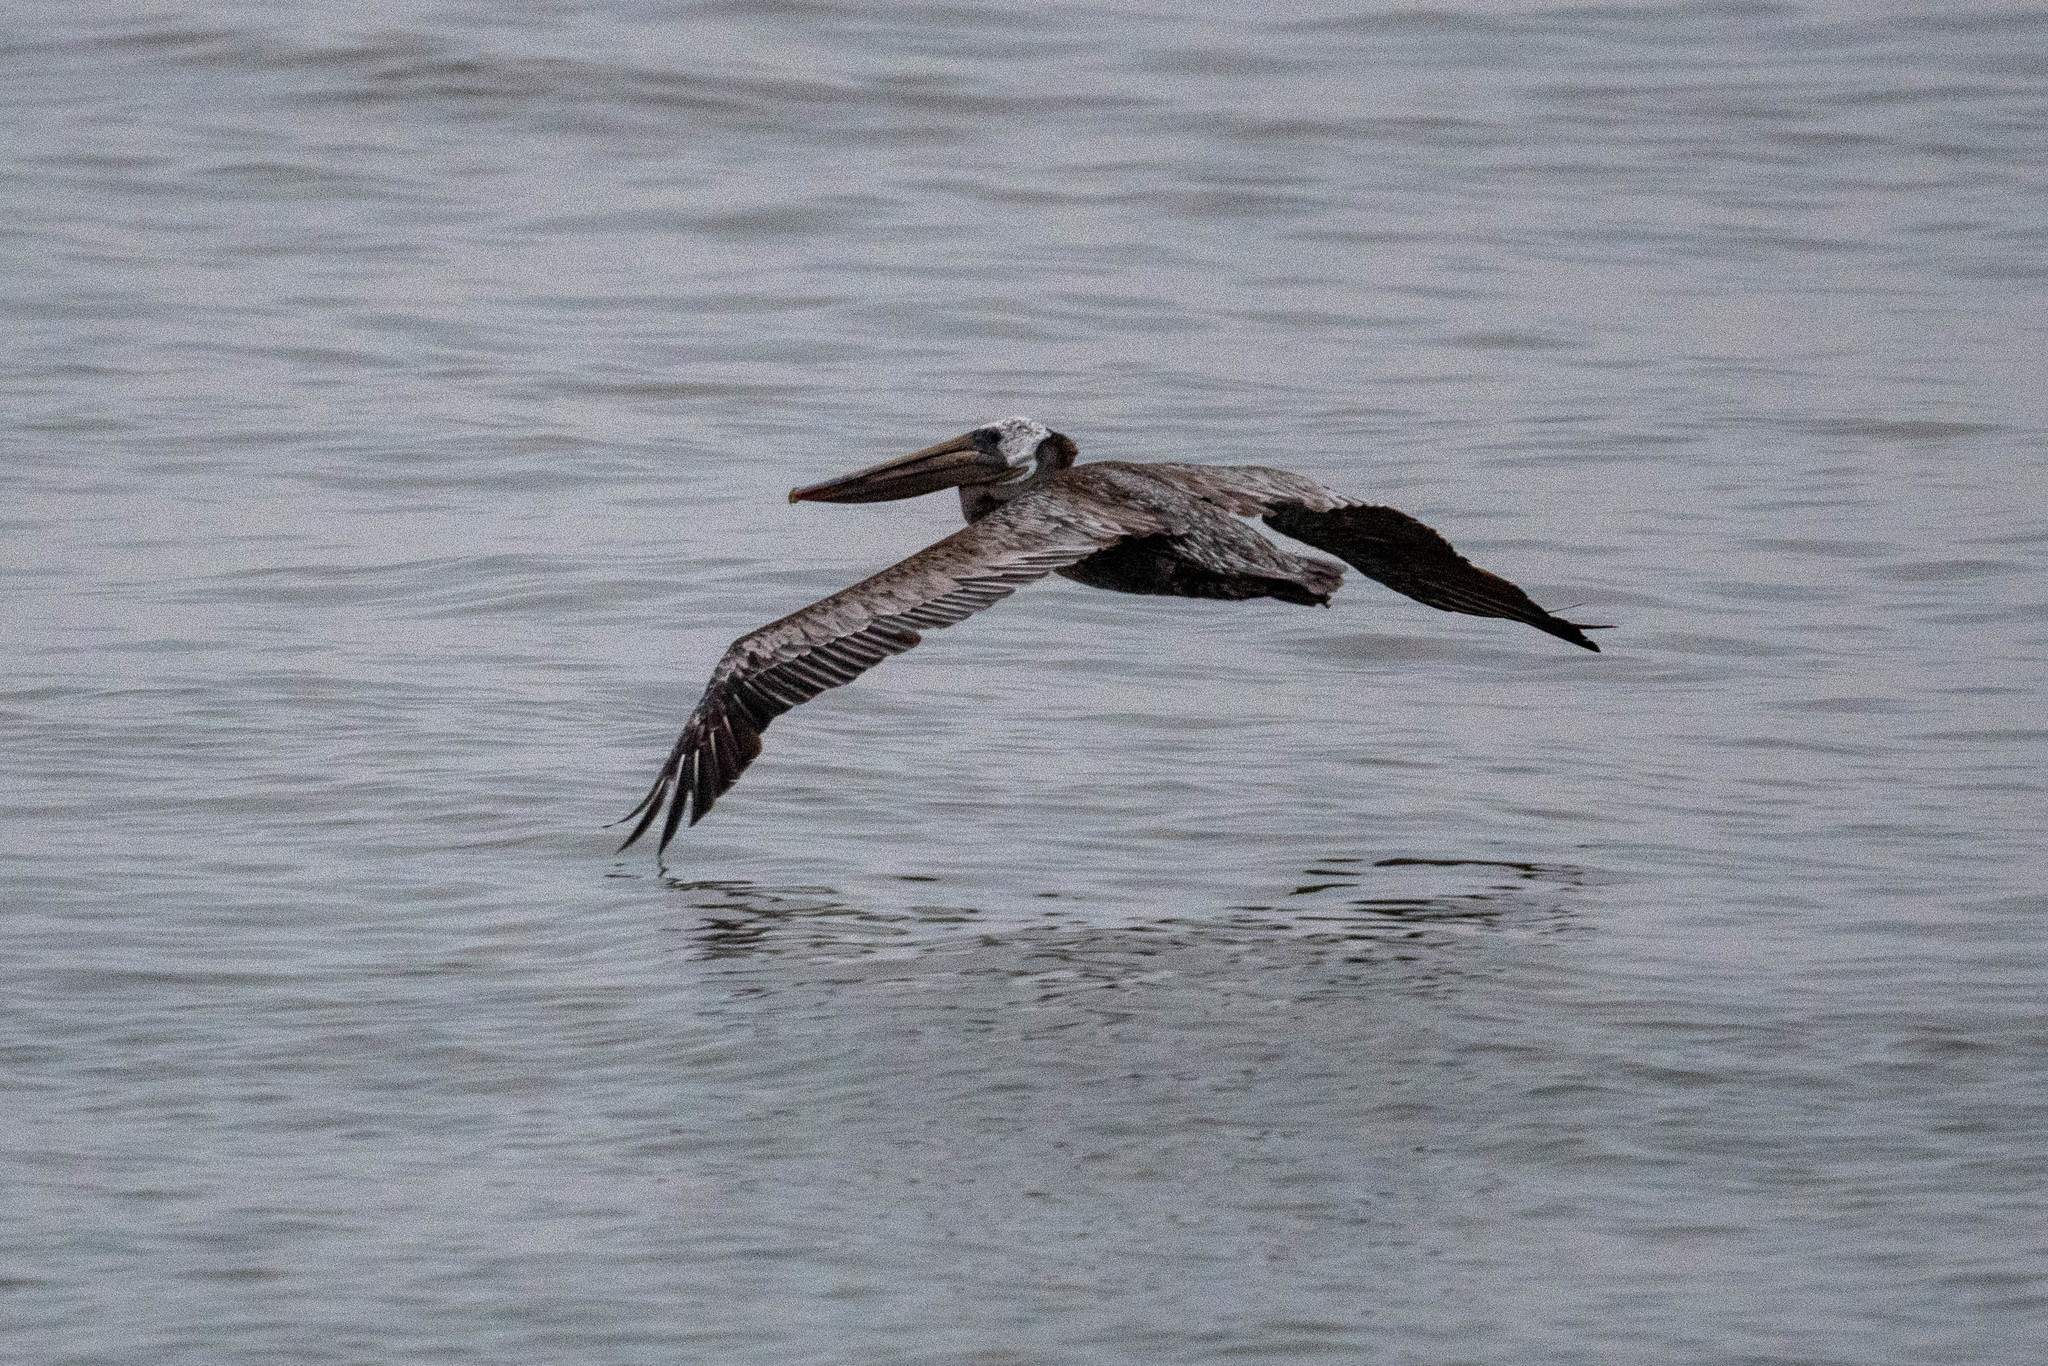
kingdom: Animalia
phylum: Chordata
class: Aves
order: Pelecaniformes
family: Pelecanidae
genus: Pelecanus
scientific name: Pelecanus occidentalis
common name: Brown pelican
